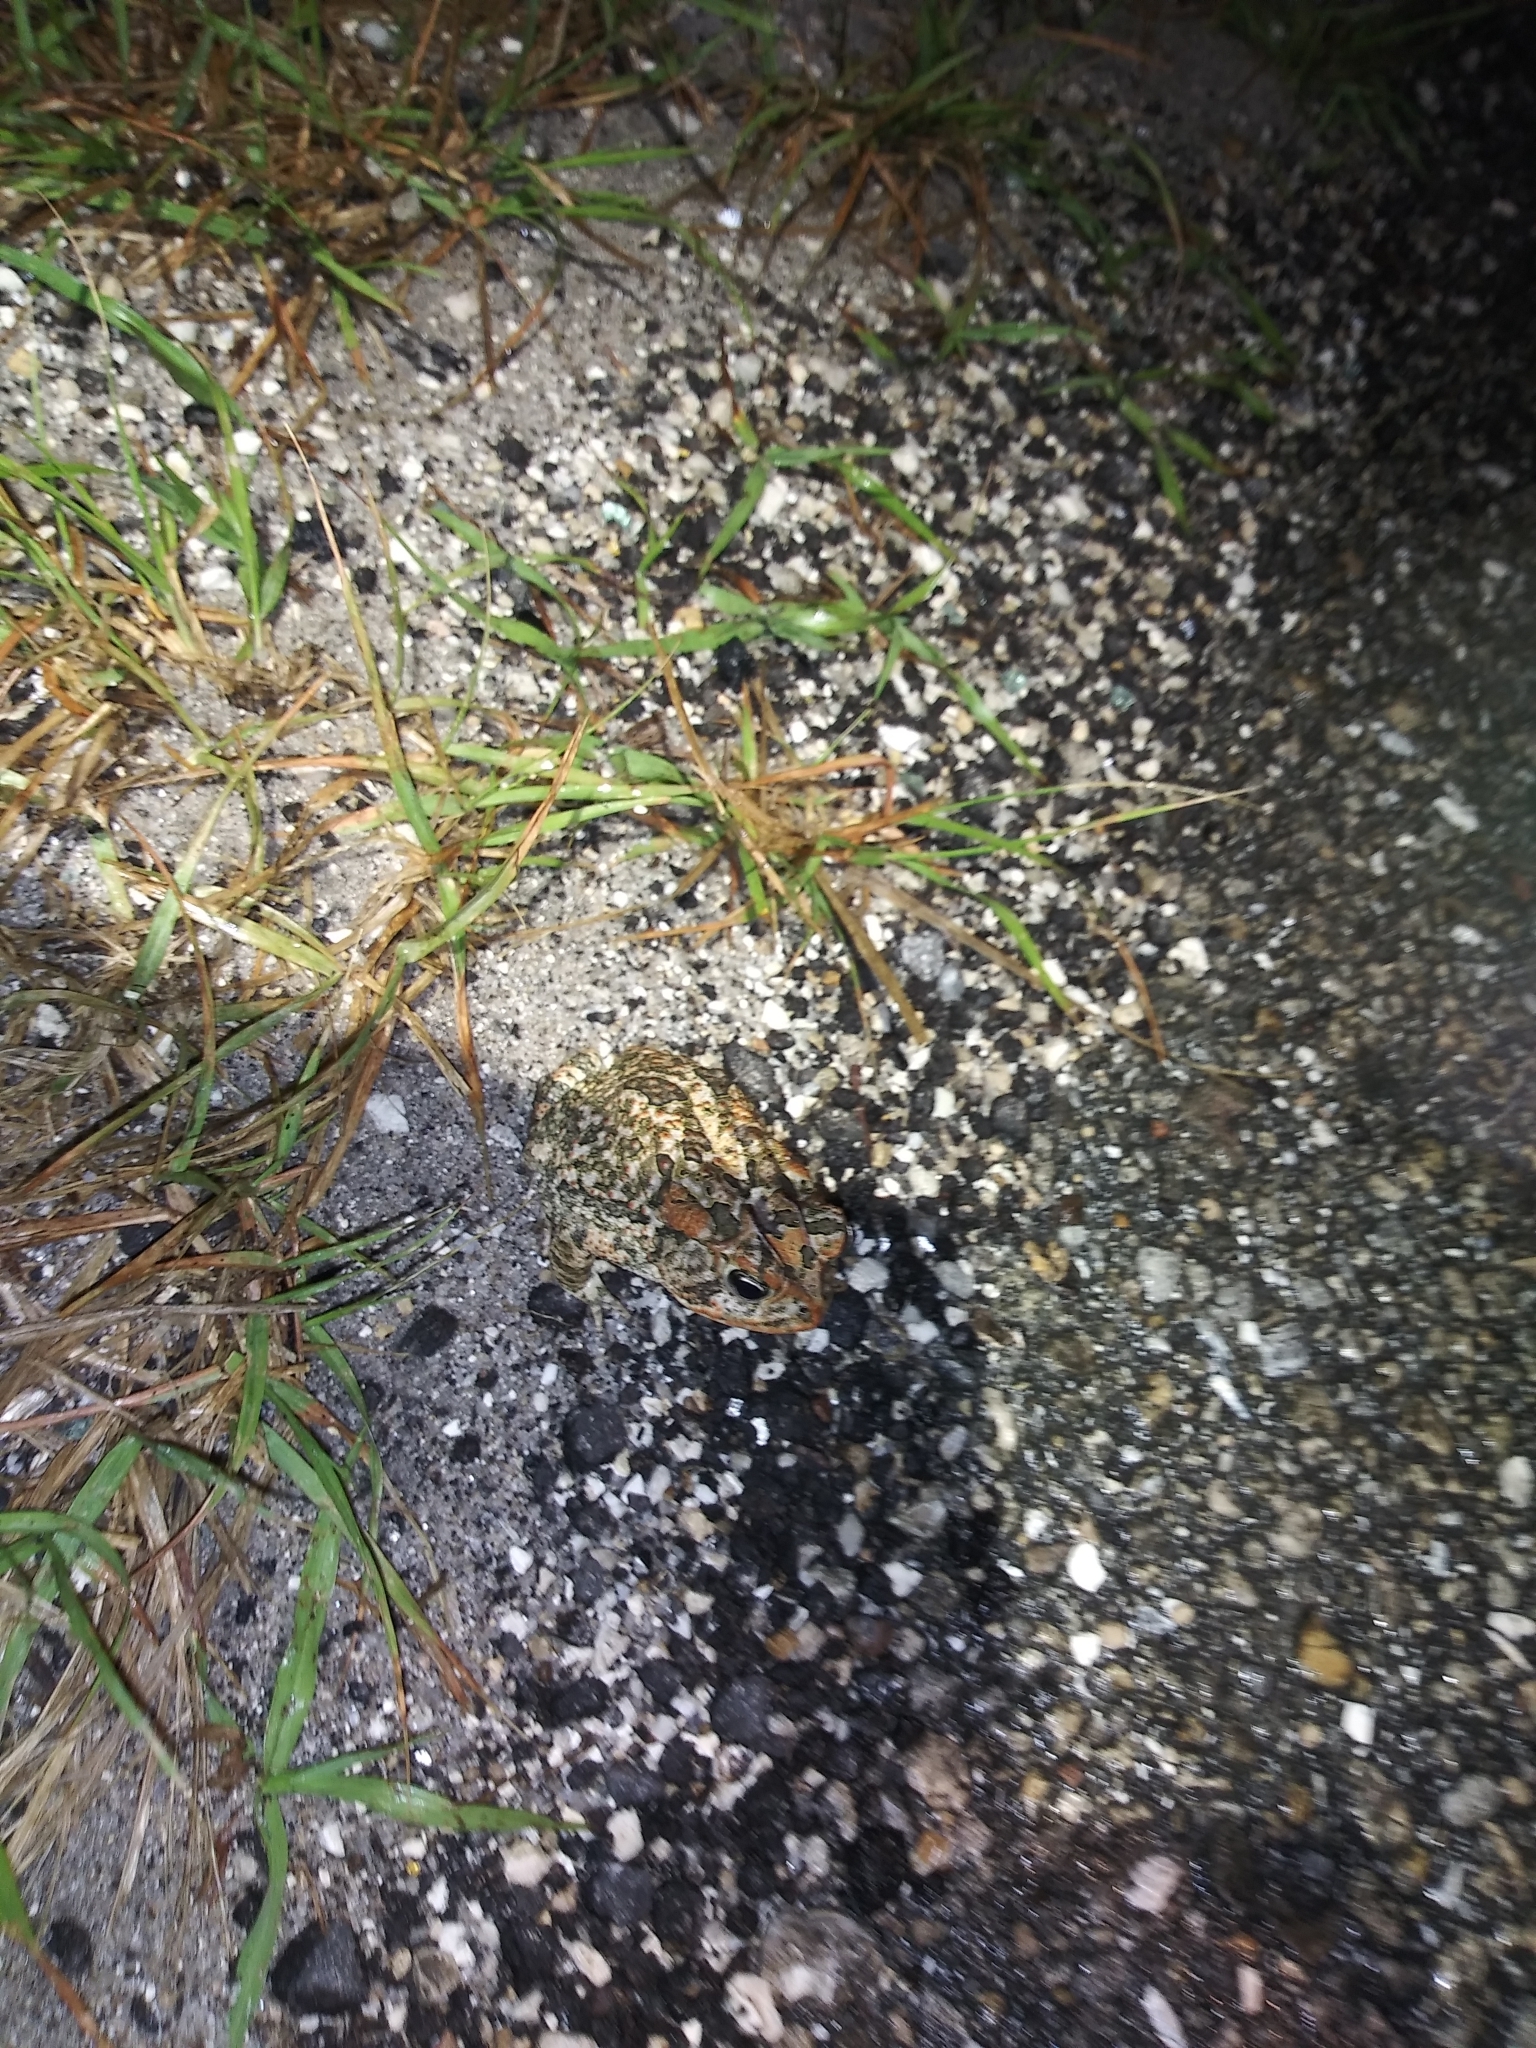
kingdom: Animalia
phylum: Chordata
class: Amphibia
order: Anura
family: Bufonidae
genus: Anaxyrus
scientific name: Anaxyrus terrestris
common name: Southern toad
